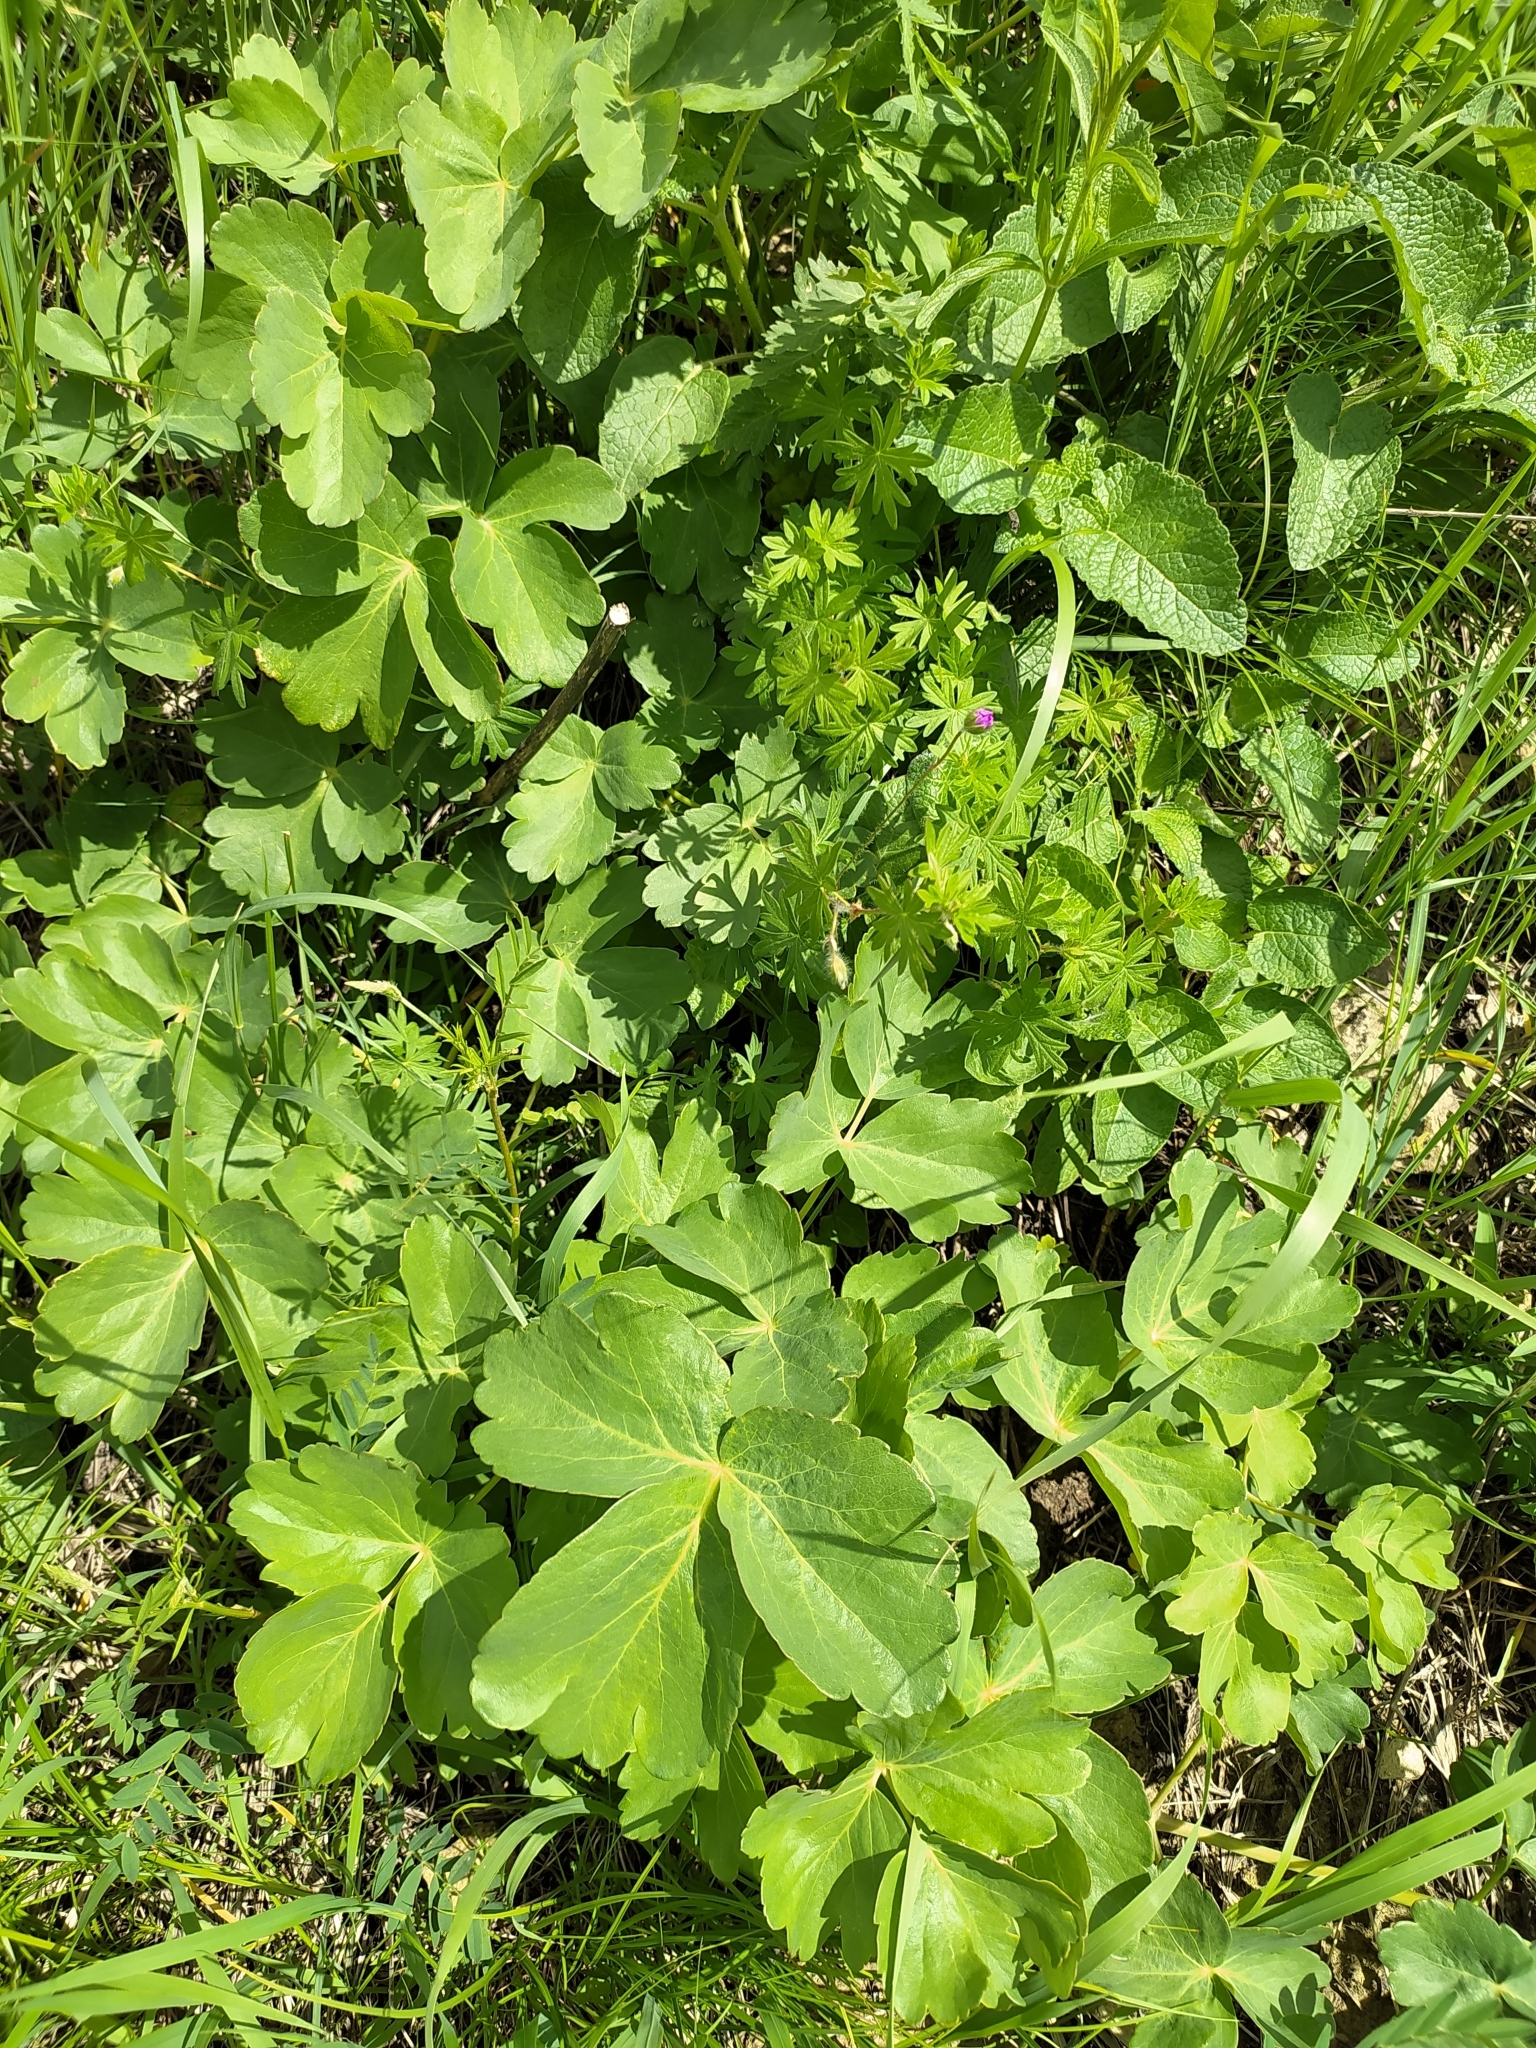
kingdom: Plantae
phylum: Tracheophyta
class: Magnoliopsida
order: Apiales
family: Apiaceae
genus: Laser
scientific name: Laser trilobum
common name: Laser
